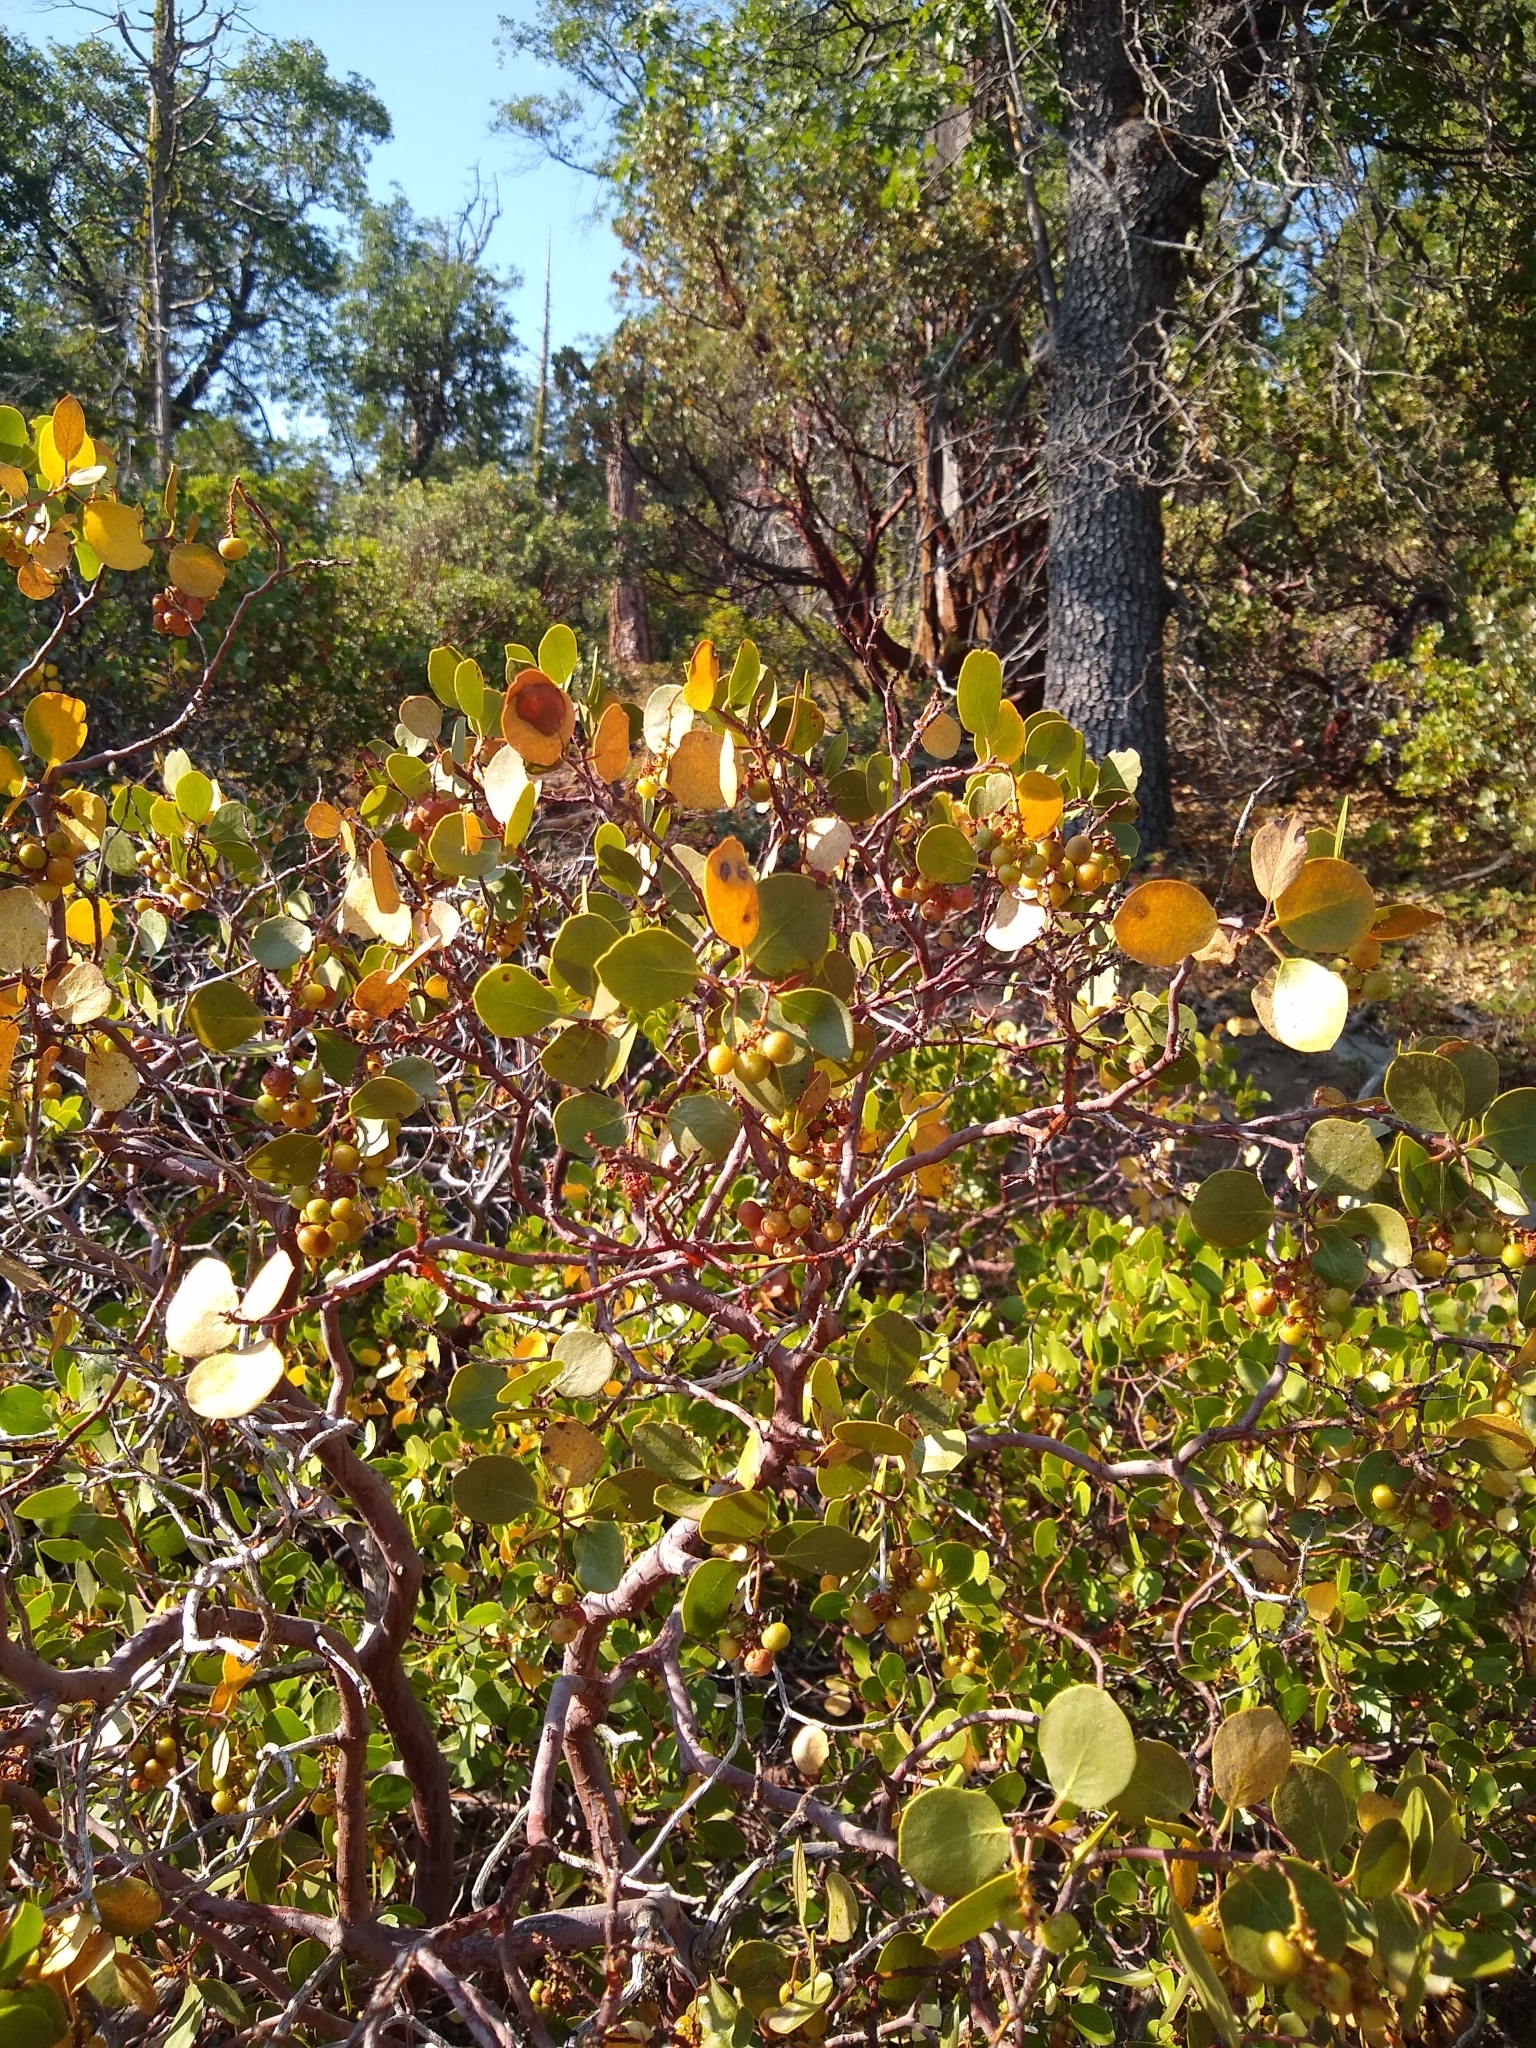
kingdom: Plantae
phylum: Tracheophyta
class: Magnoliopsida
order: Ericales
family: Ericaceae
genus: Arctostaphylos
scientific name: Arctostaphylos patula
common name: Green-leaf manzanita
